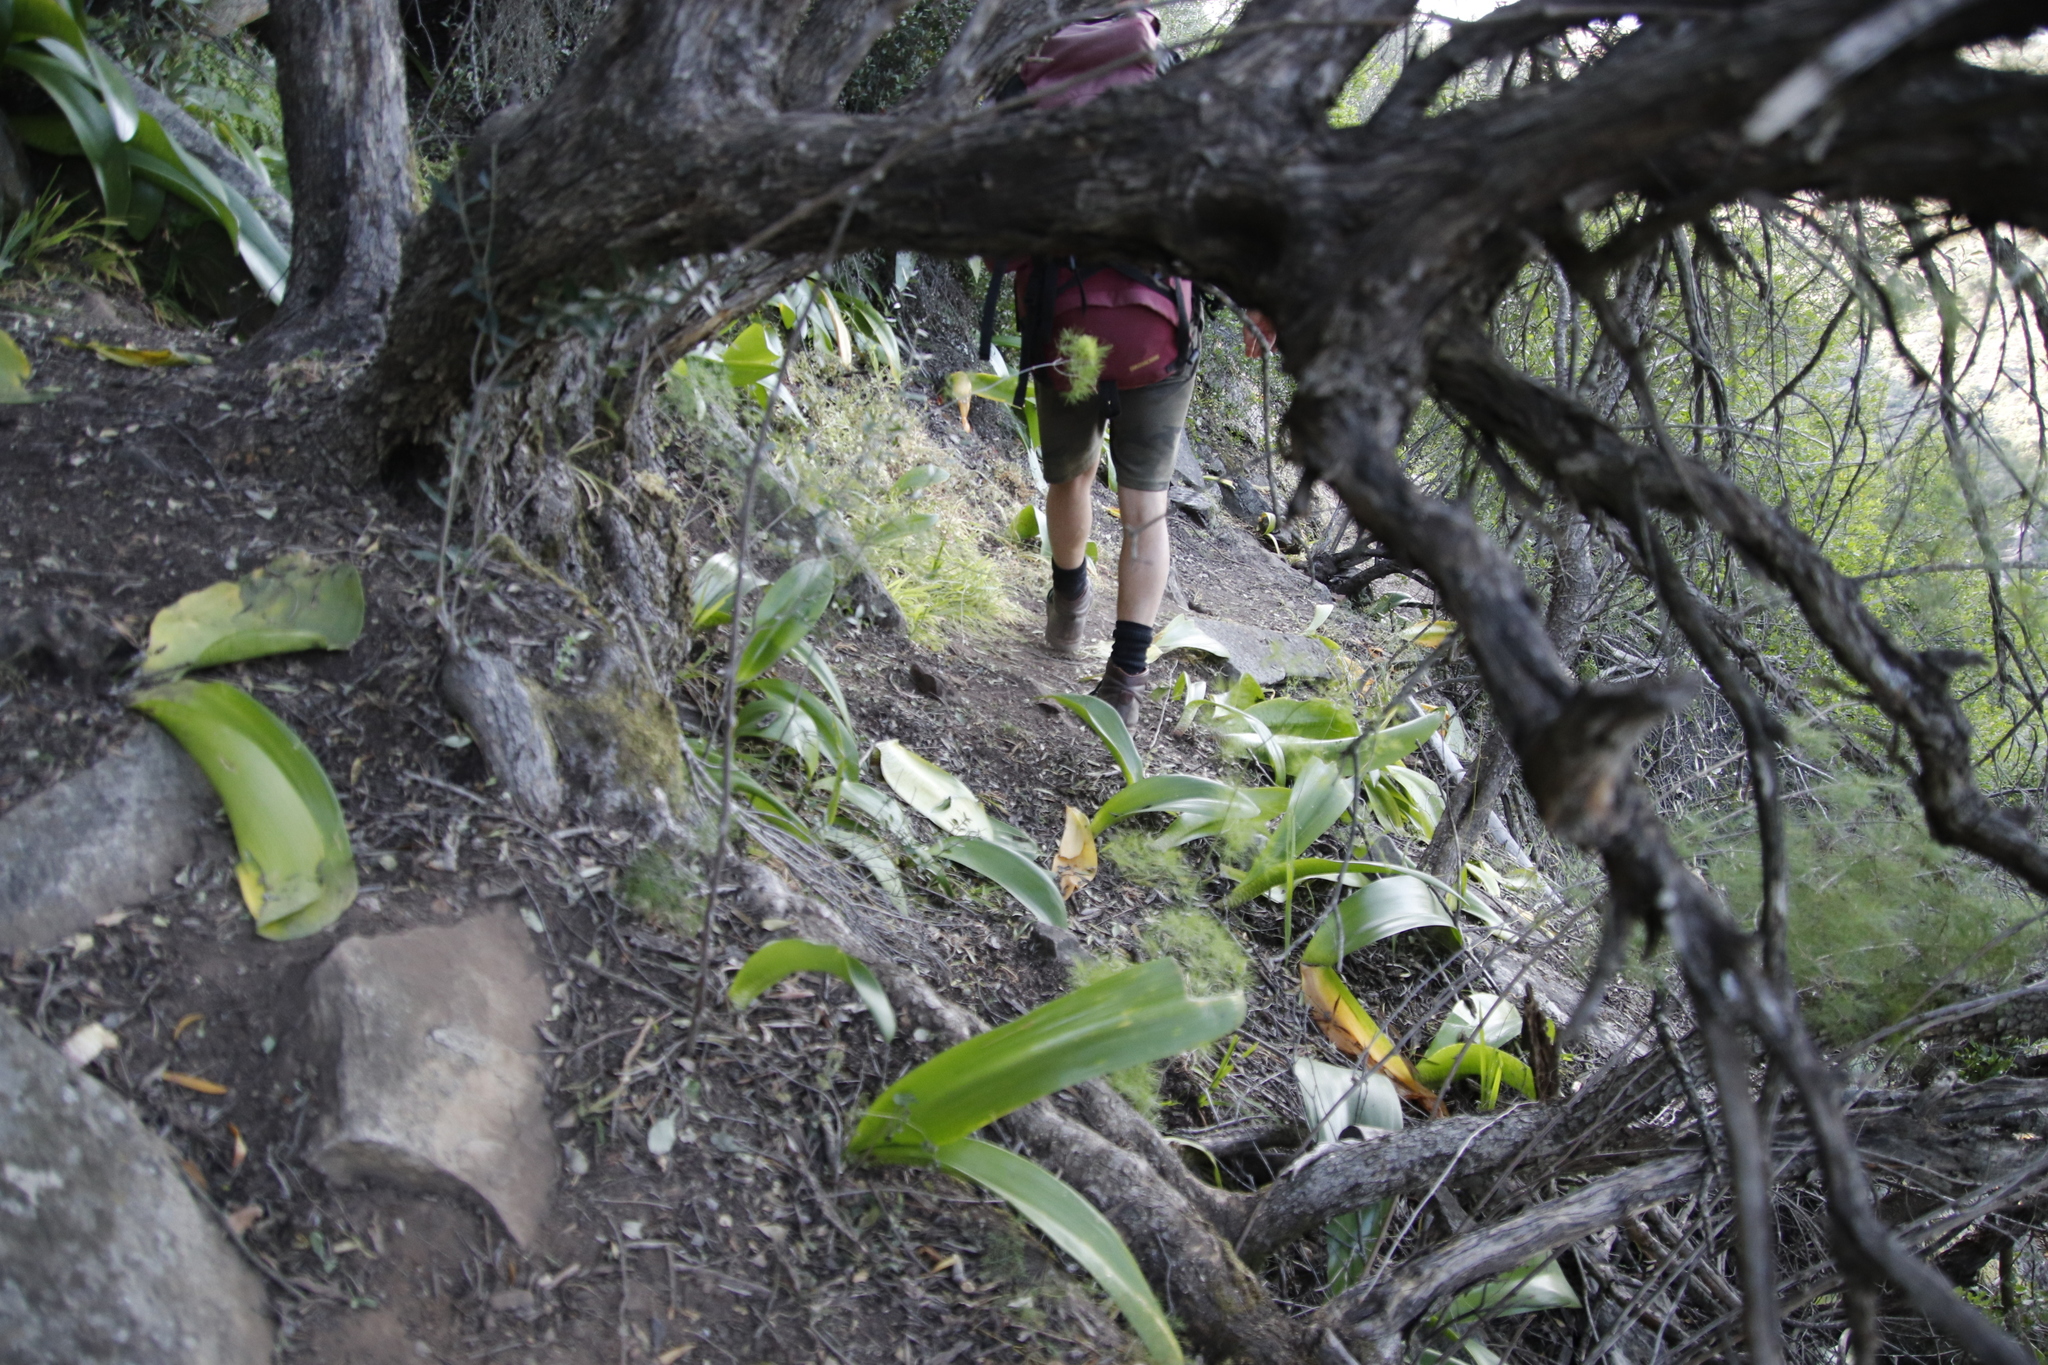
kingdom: Plantae
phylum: Tracheophyta
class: Liliopsida
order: Asparagales
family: Amaryllidaceae
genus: Haemanthus
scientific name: Haemanthus coccineus
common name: Cape-tulip
